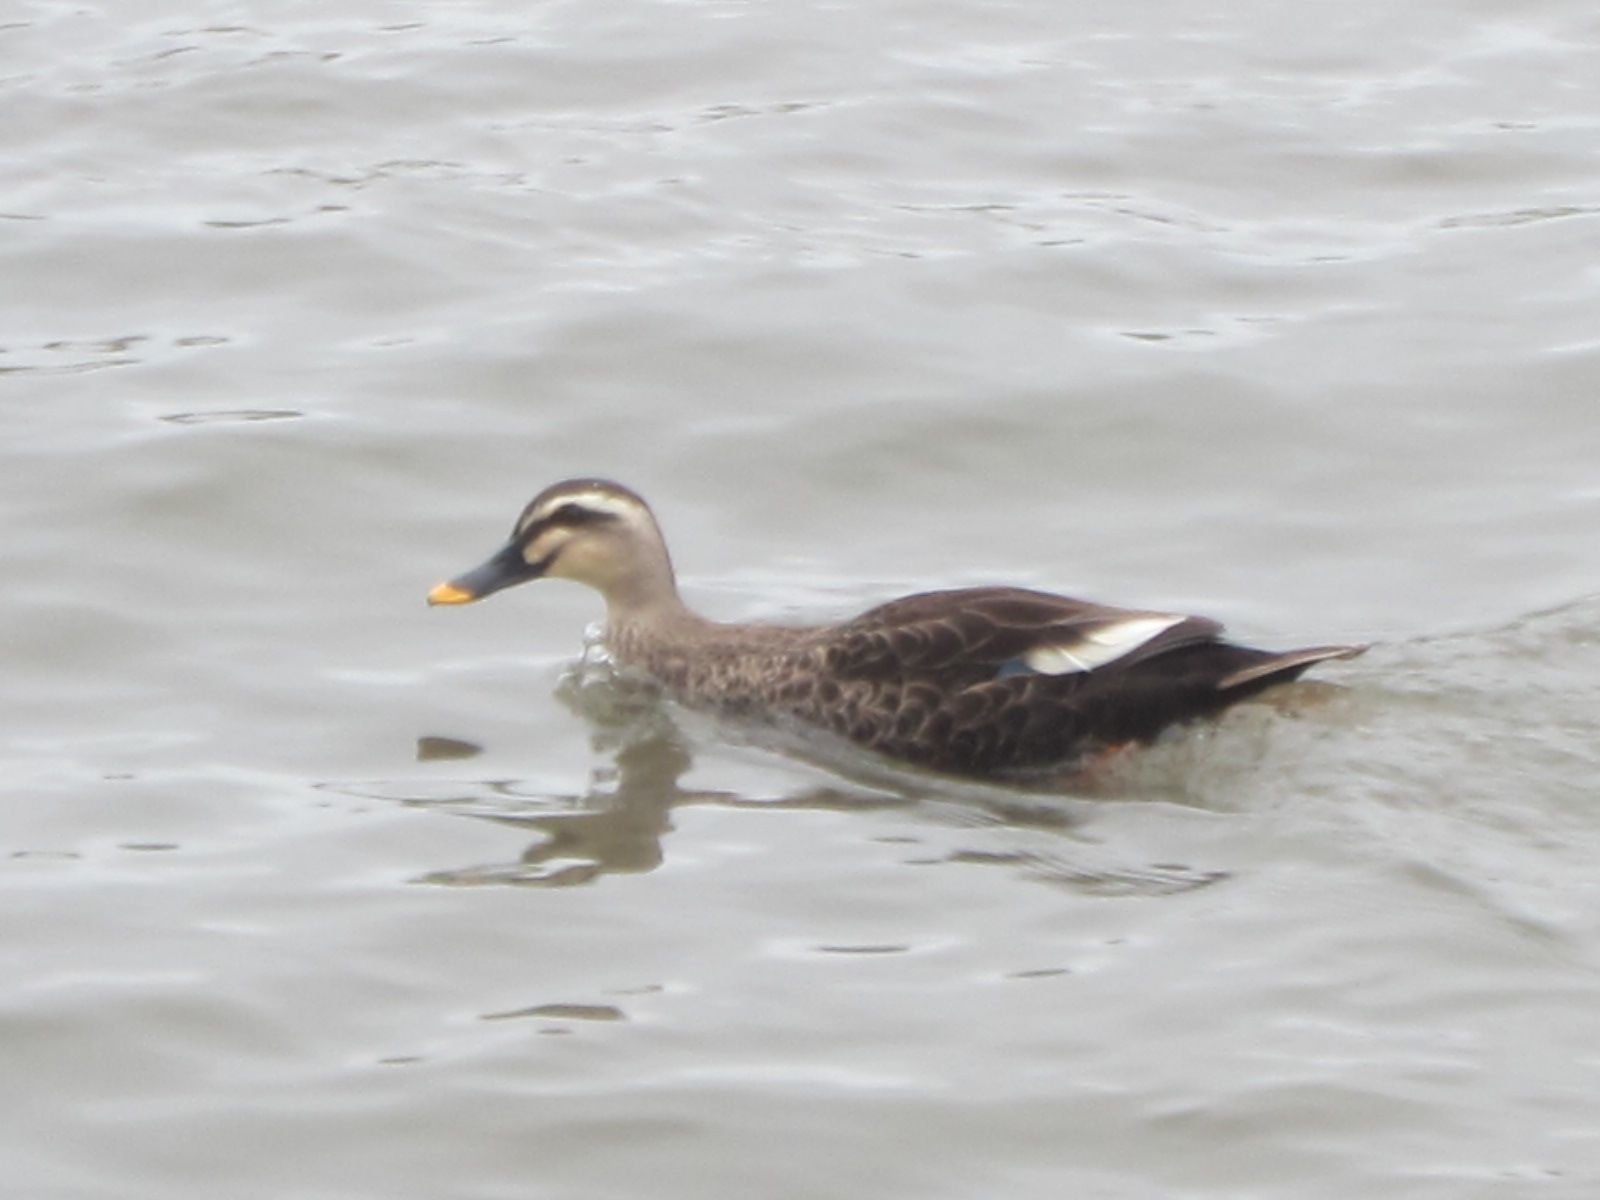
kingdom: Animalia
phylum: Chordata
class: Aves
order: Anseriformes
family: Anatidae
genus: Anas
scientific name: Anas zonorhyncha
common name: Eastern spot-billed duck
